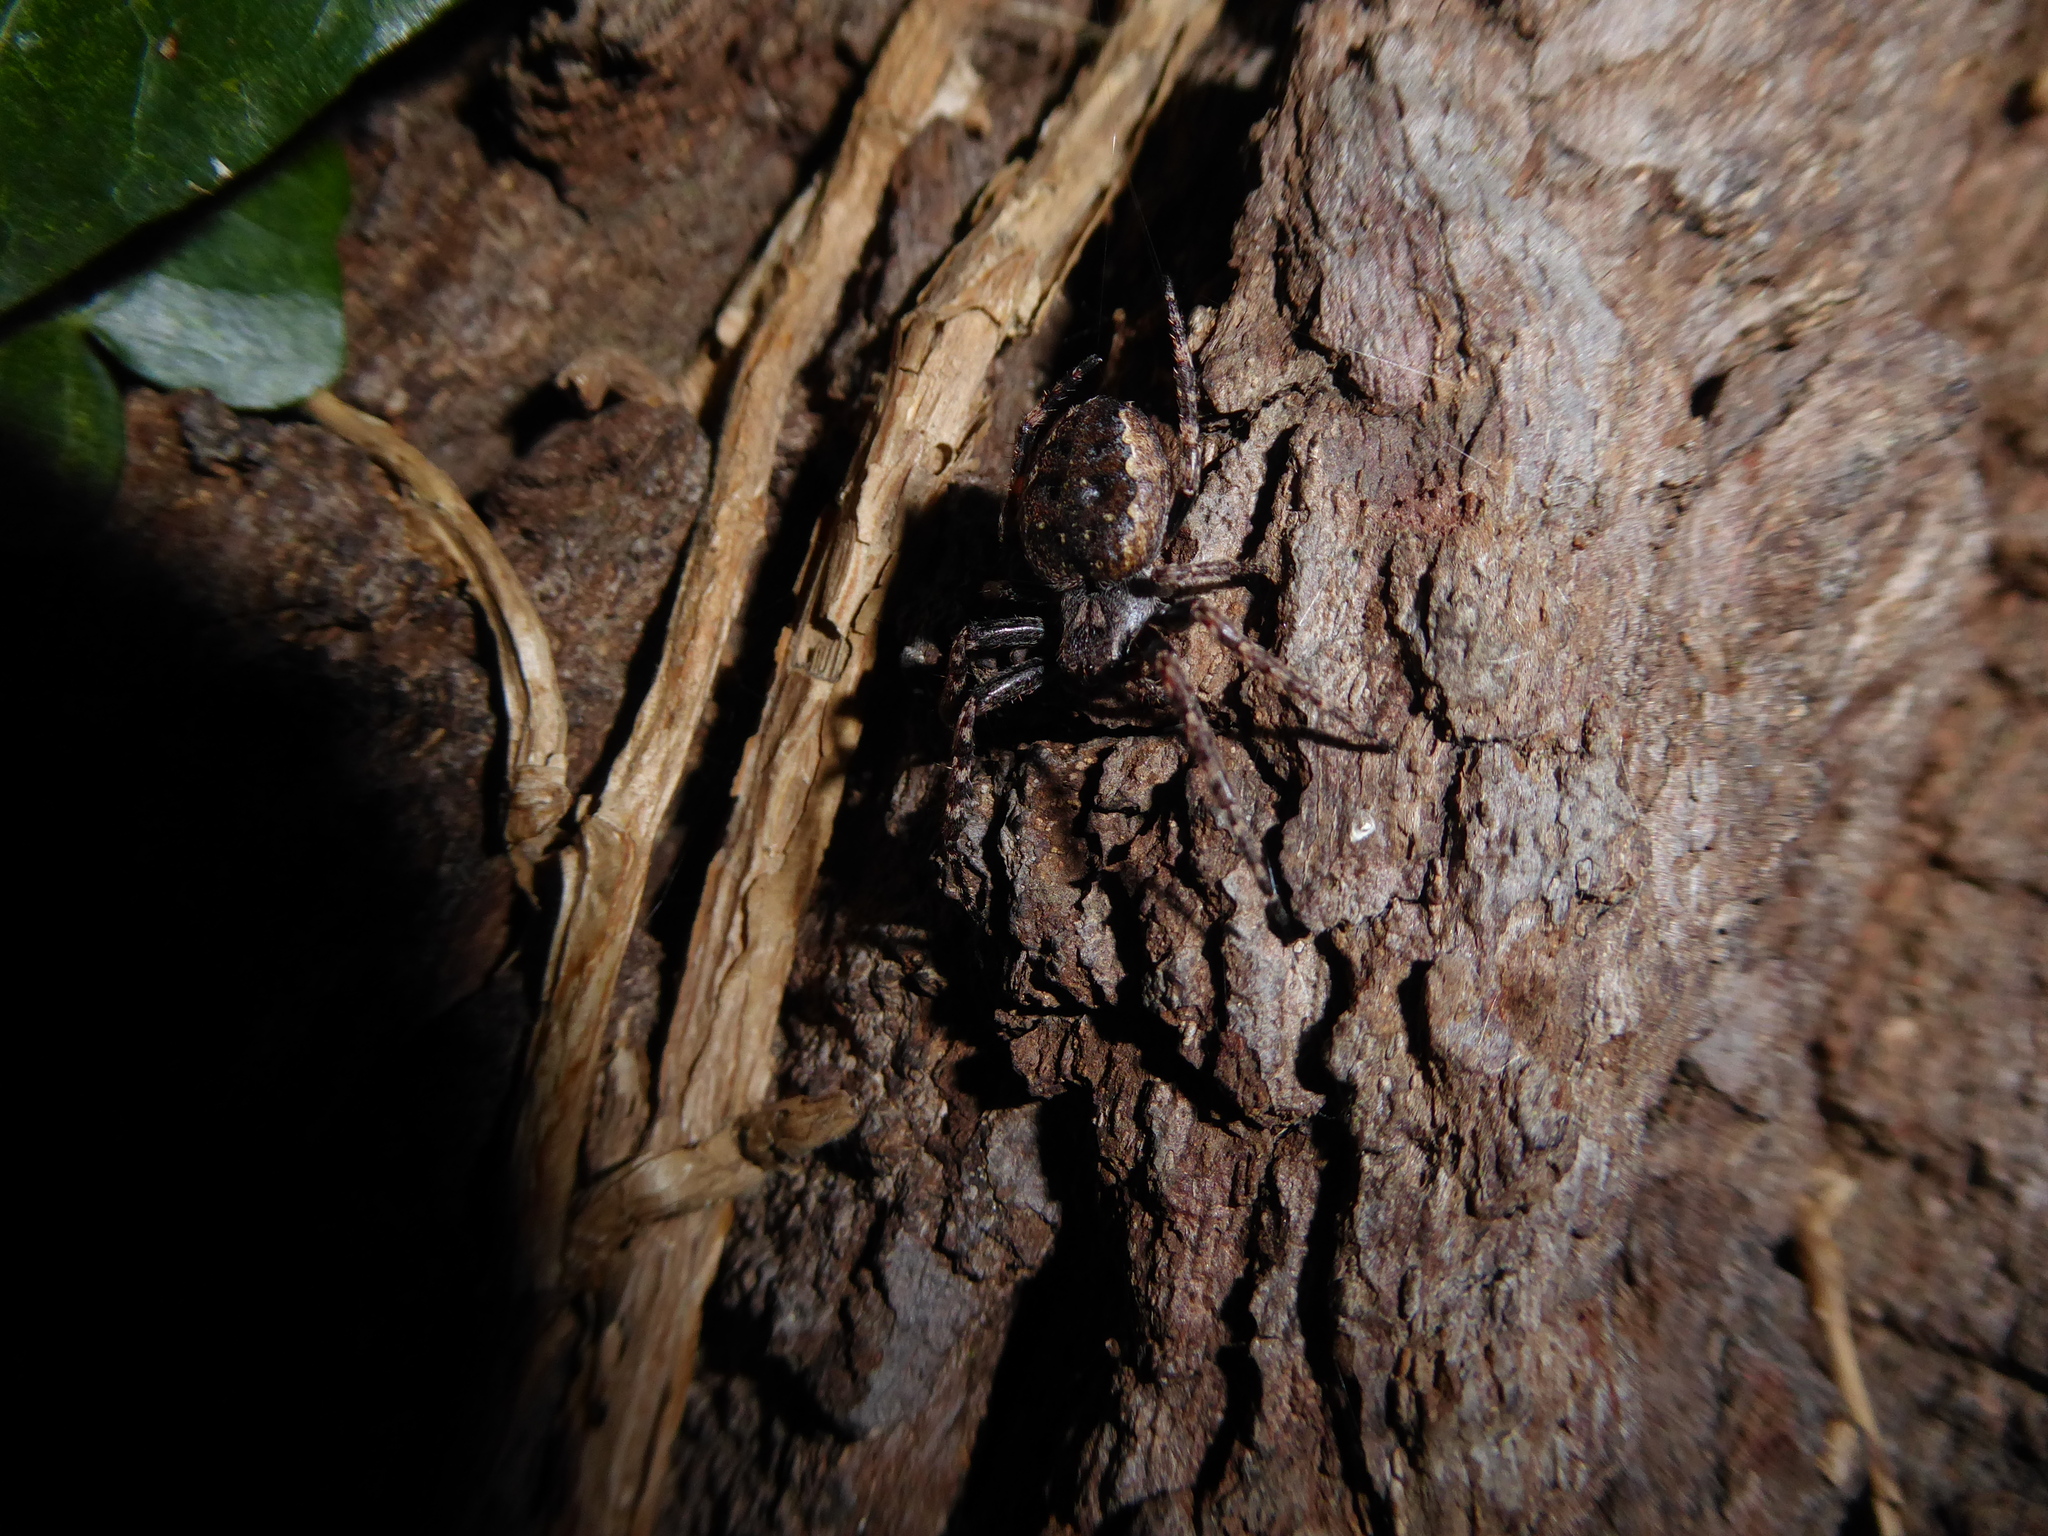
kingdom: Animalia
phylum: Arthropoda
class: Arachnida
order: Araneae
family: Araneidae
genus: Nuctenea
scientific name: Nuctenea umbratica
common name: Toad spider
